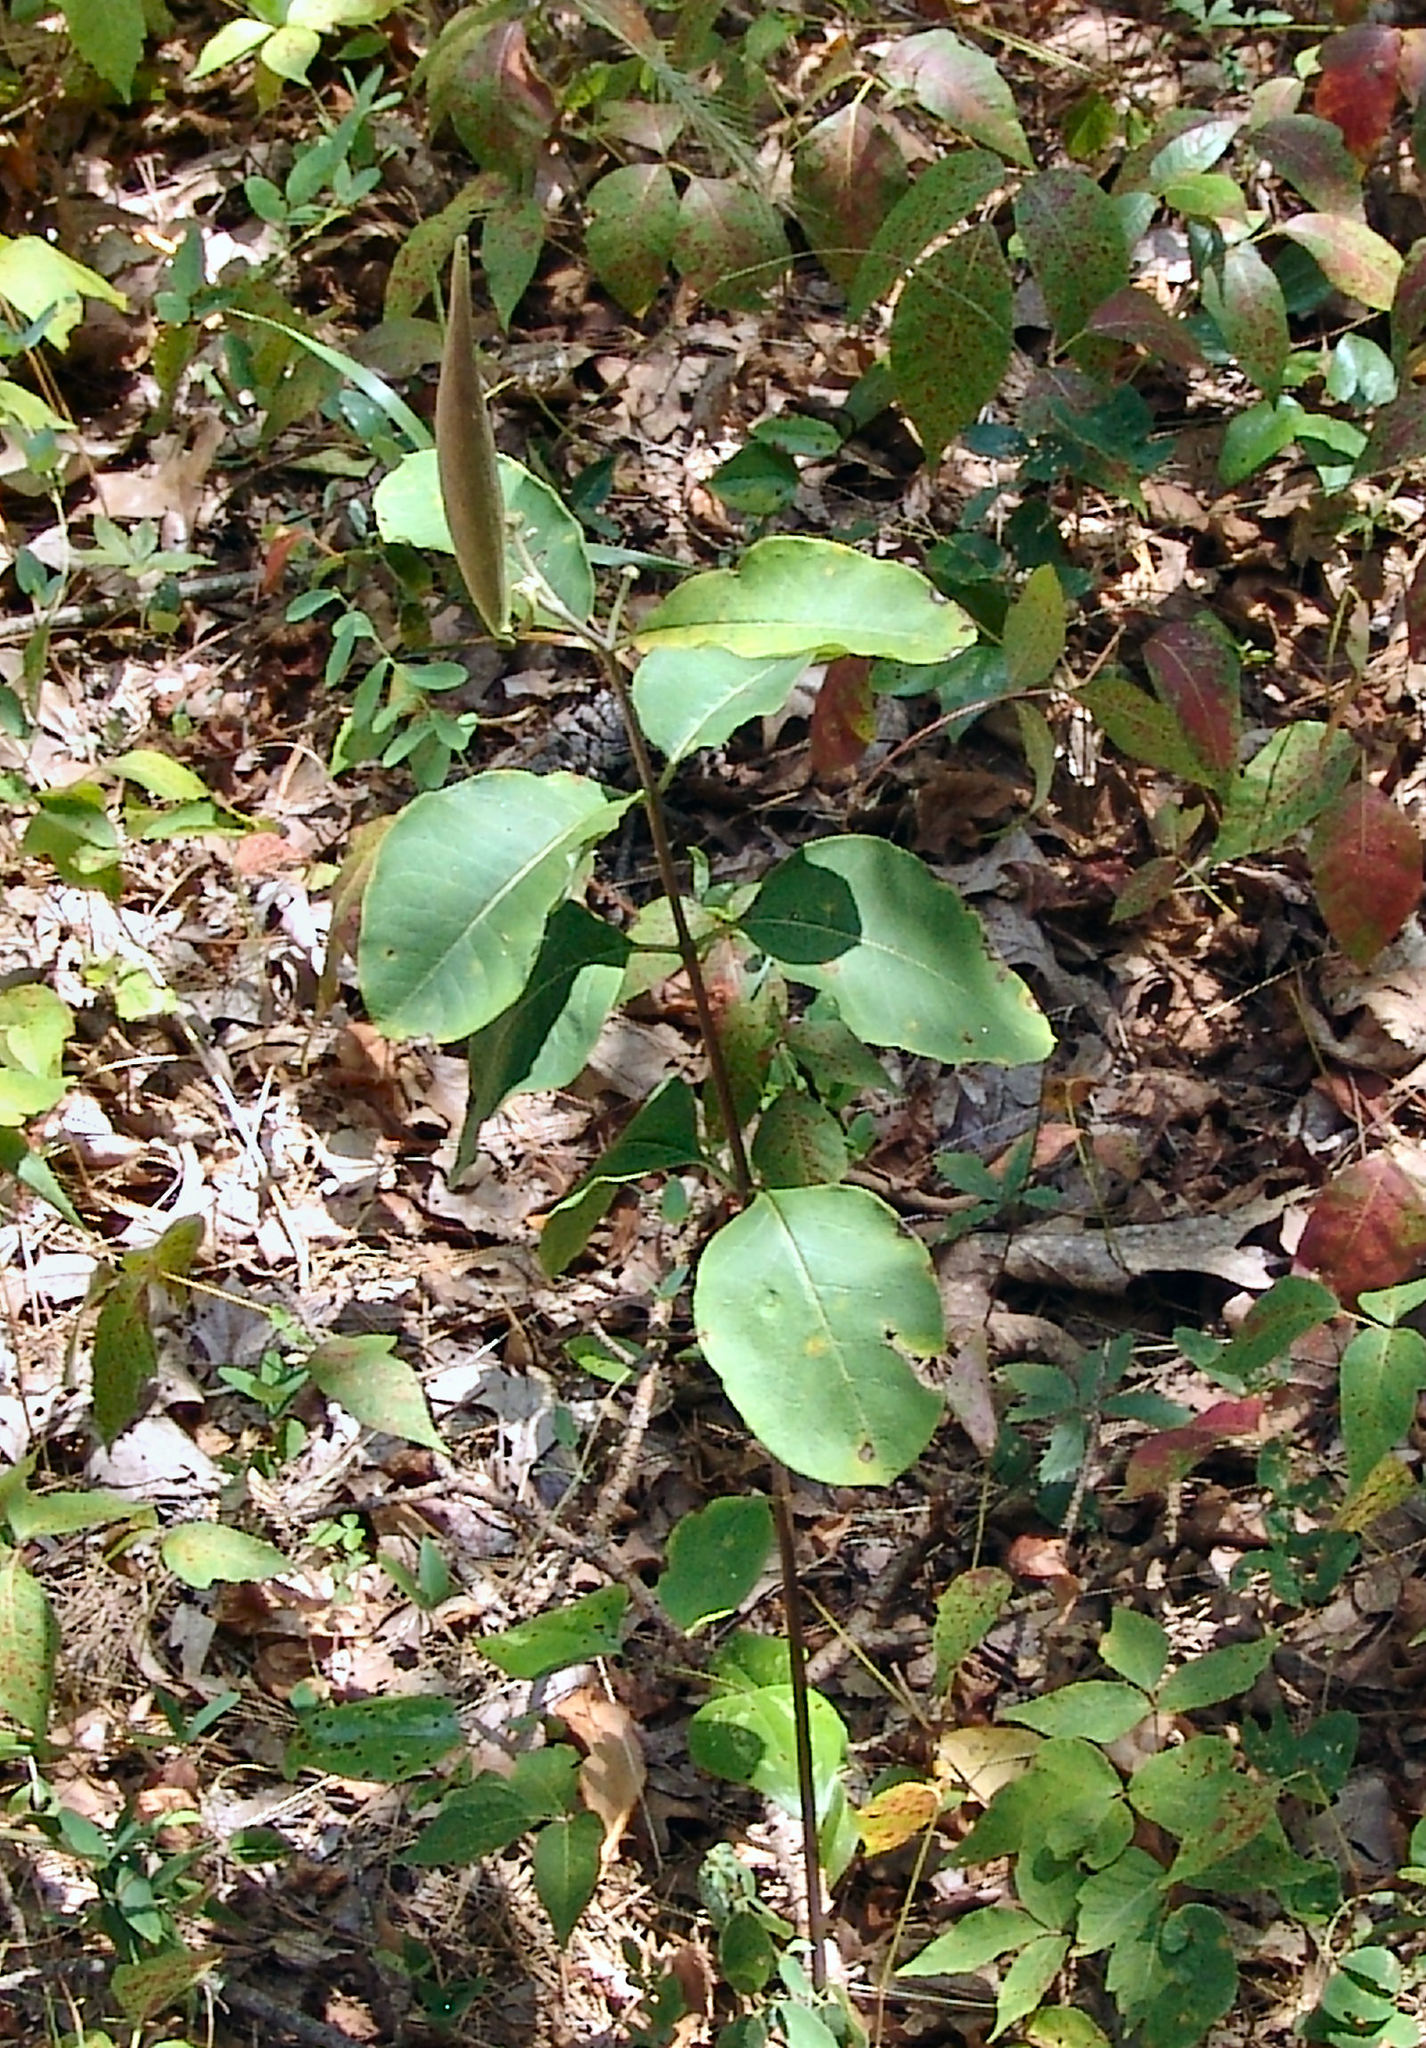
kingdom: Plantae
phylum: Tracheophyta
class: Magnoliopsida
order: Gentianales
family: Apocynaceae
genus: Asclepias
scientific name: Asclepias variegata
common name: Variegated milkweed
